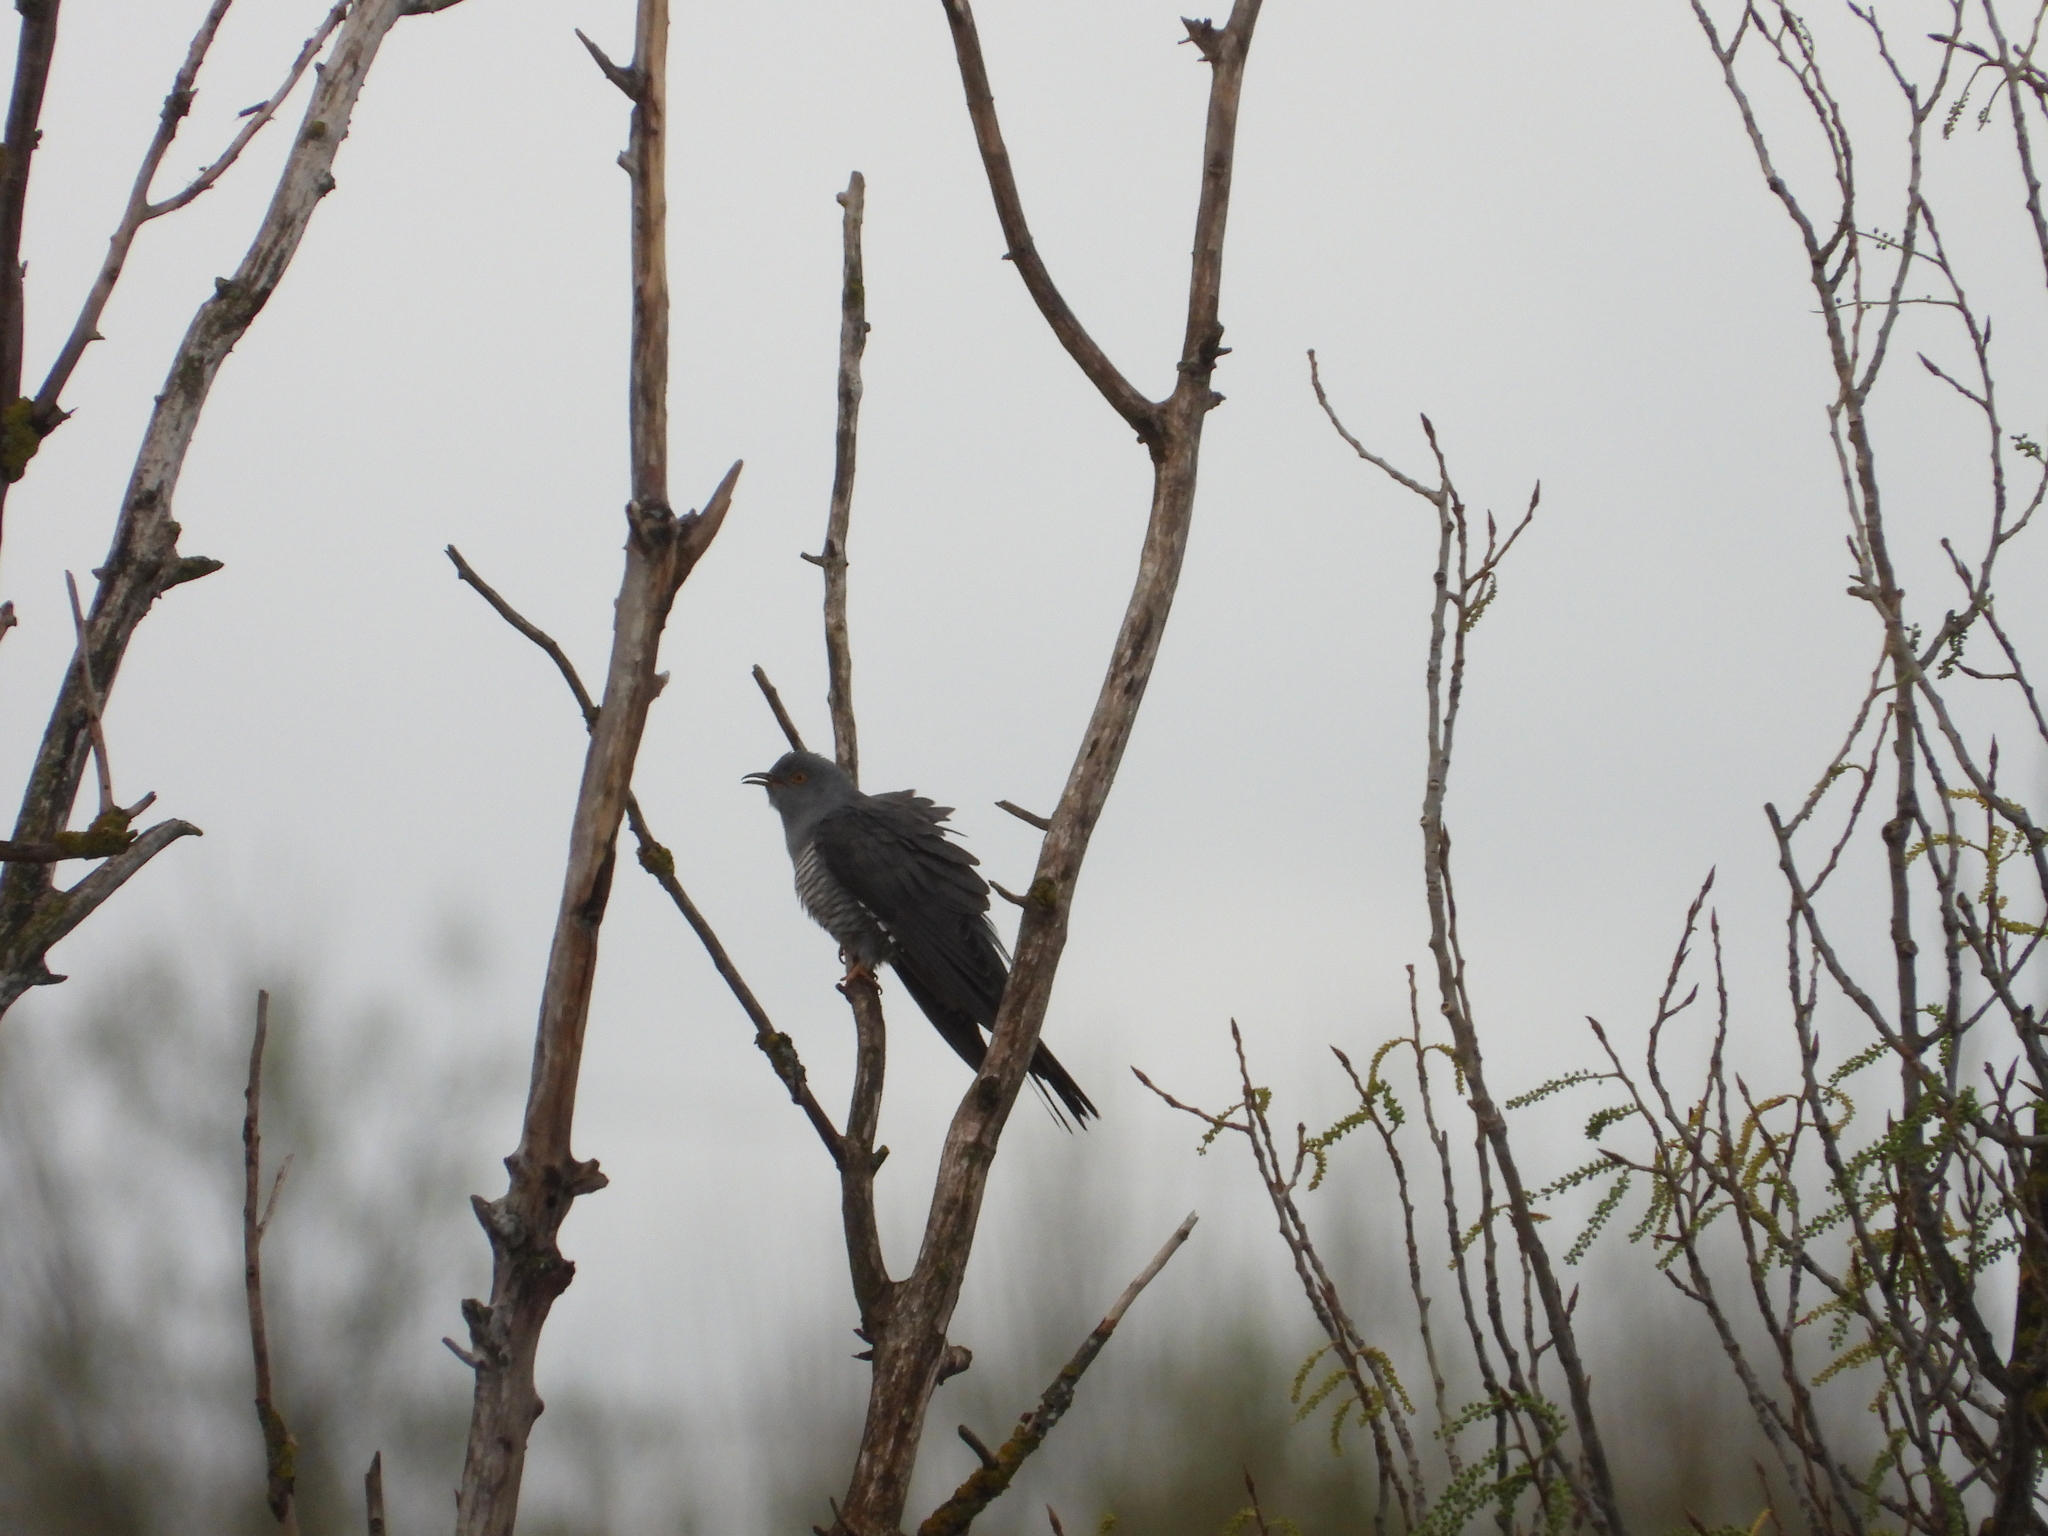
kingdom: Animalia
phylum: Chordata
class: Aves
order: Cuculiformes
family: Cuculidae
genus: Cuculus
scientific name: Cuculus canorus
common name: Common cuckoo
